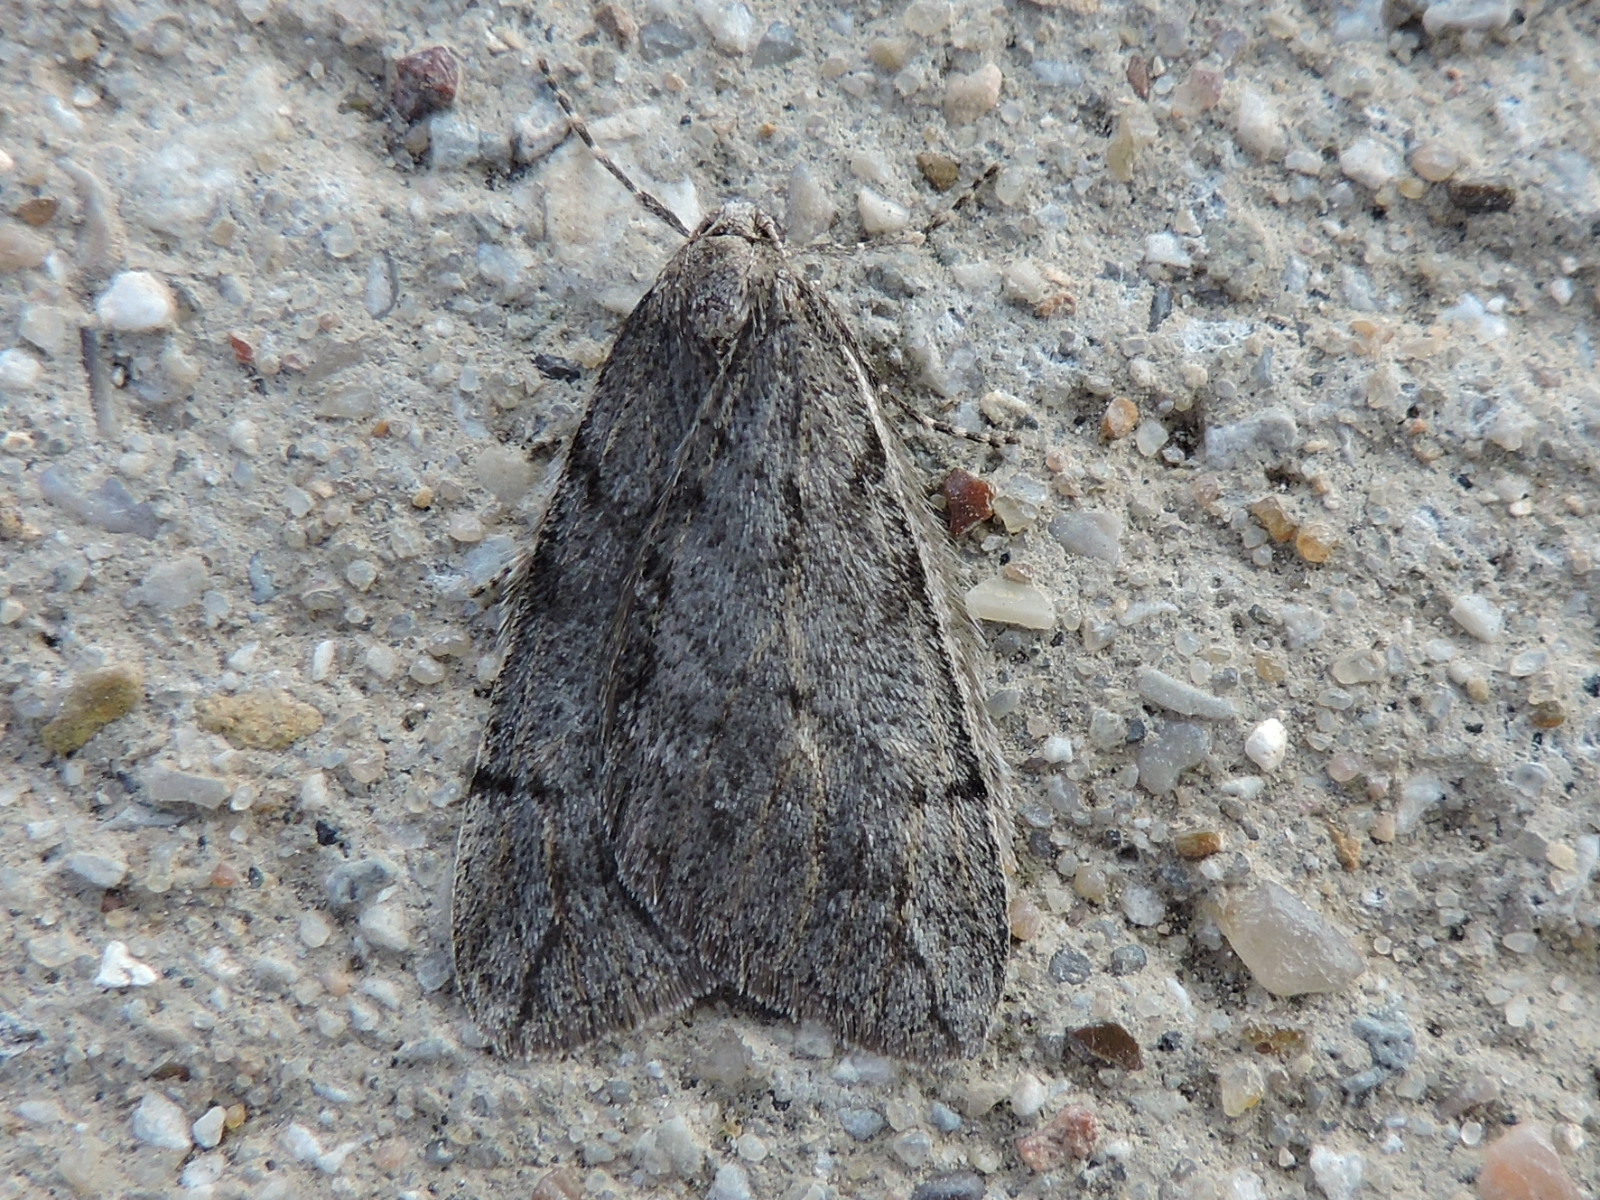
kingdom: Animalia
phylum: Arthropoda
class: Insecta
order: Lepidoptera
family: Geometridae
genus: Paleacrita
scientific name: Paleacrita vernata
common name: Spring cankerworm
